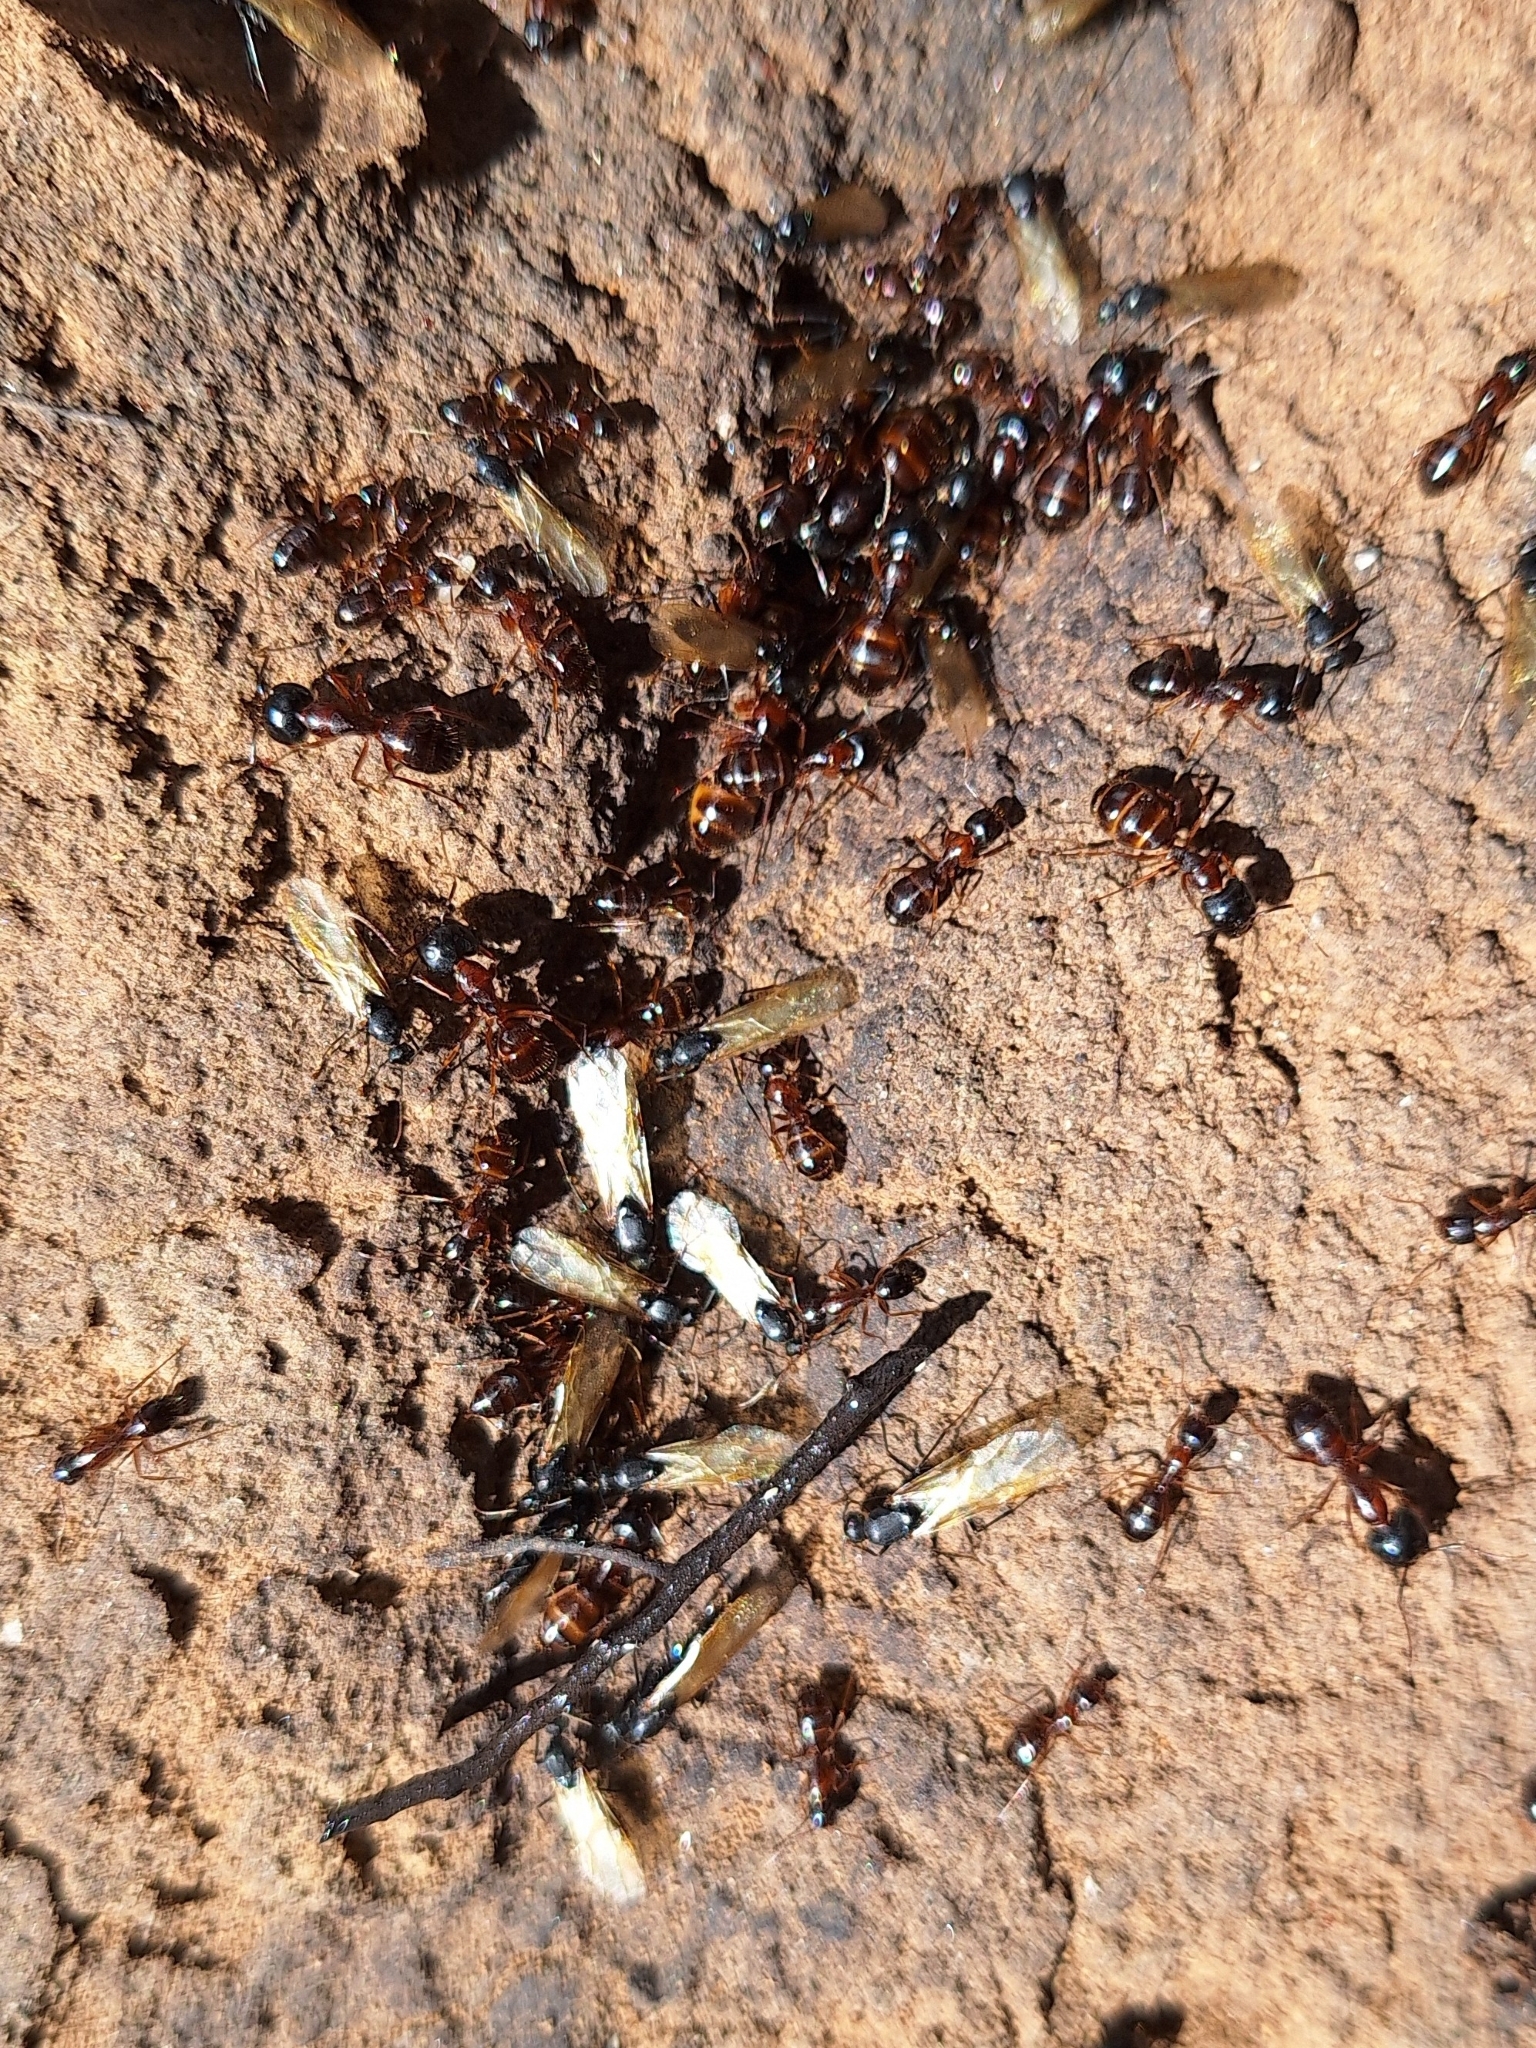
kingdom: Animalia
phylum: Arthropoda
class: Insecta
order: Hymenoptera
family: Formicidae
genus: Camponotus
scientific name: Camponotus sansabeanus
